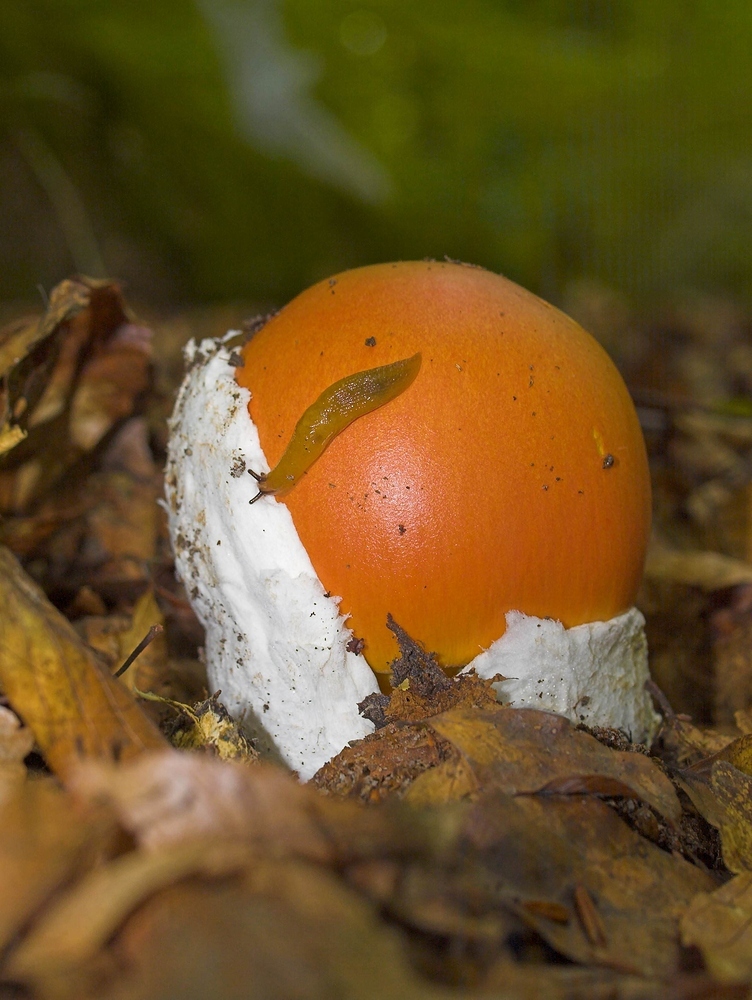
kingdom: Fungi
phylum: Basidiomycota
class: Agaricomycetes
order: Agaricales
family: Amanitaceae
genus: Amanita
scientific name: Amanita caesarea
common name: Caesar's amanita
